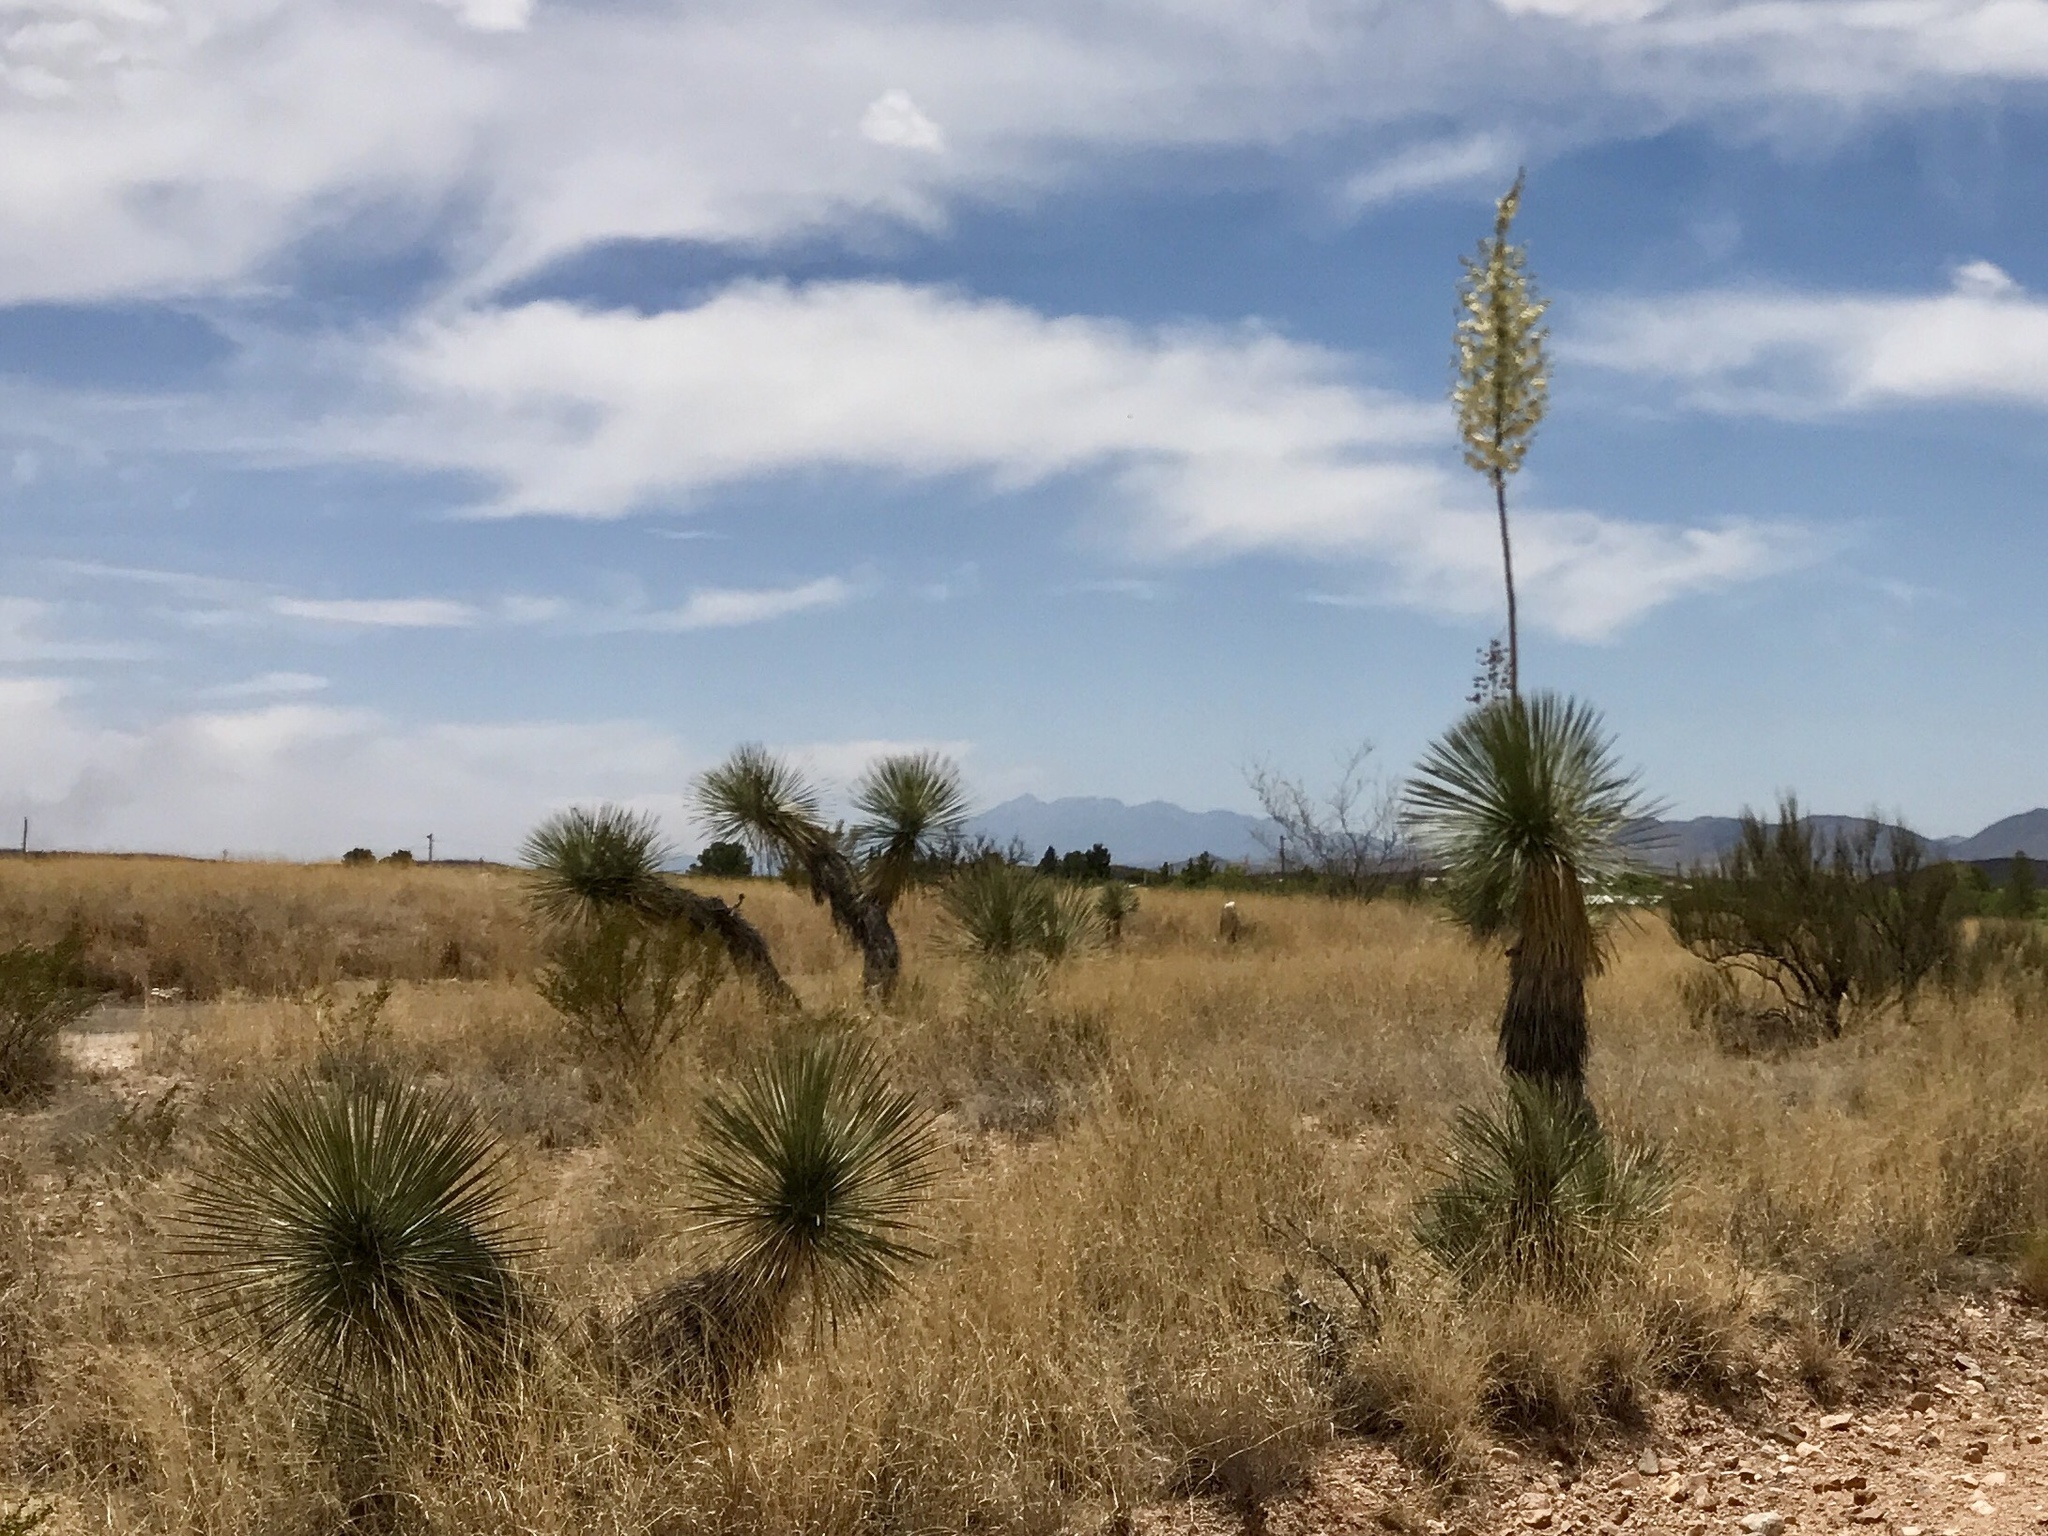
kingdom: Plantae
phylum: Tracheophyta
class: Liliopsida
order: Asparagales
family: Asparagaceae
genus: Yucca
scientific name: Yucca elata
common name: Palmella
